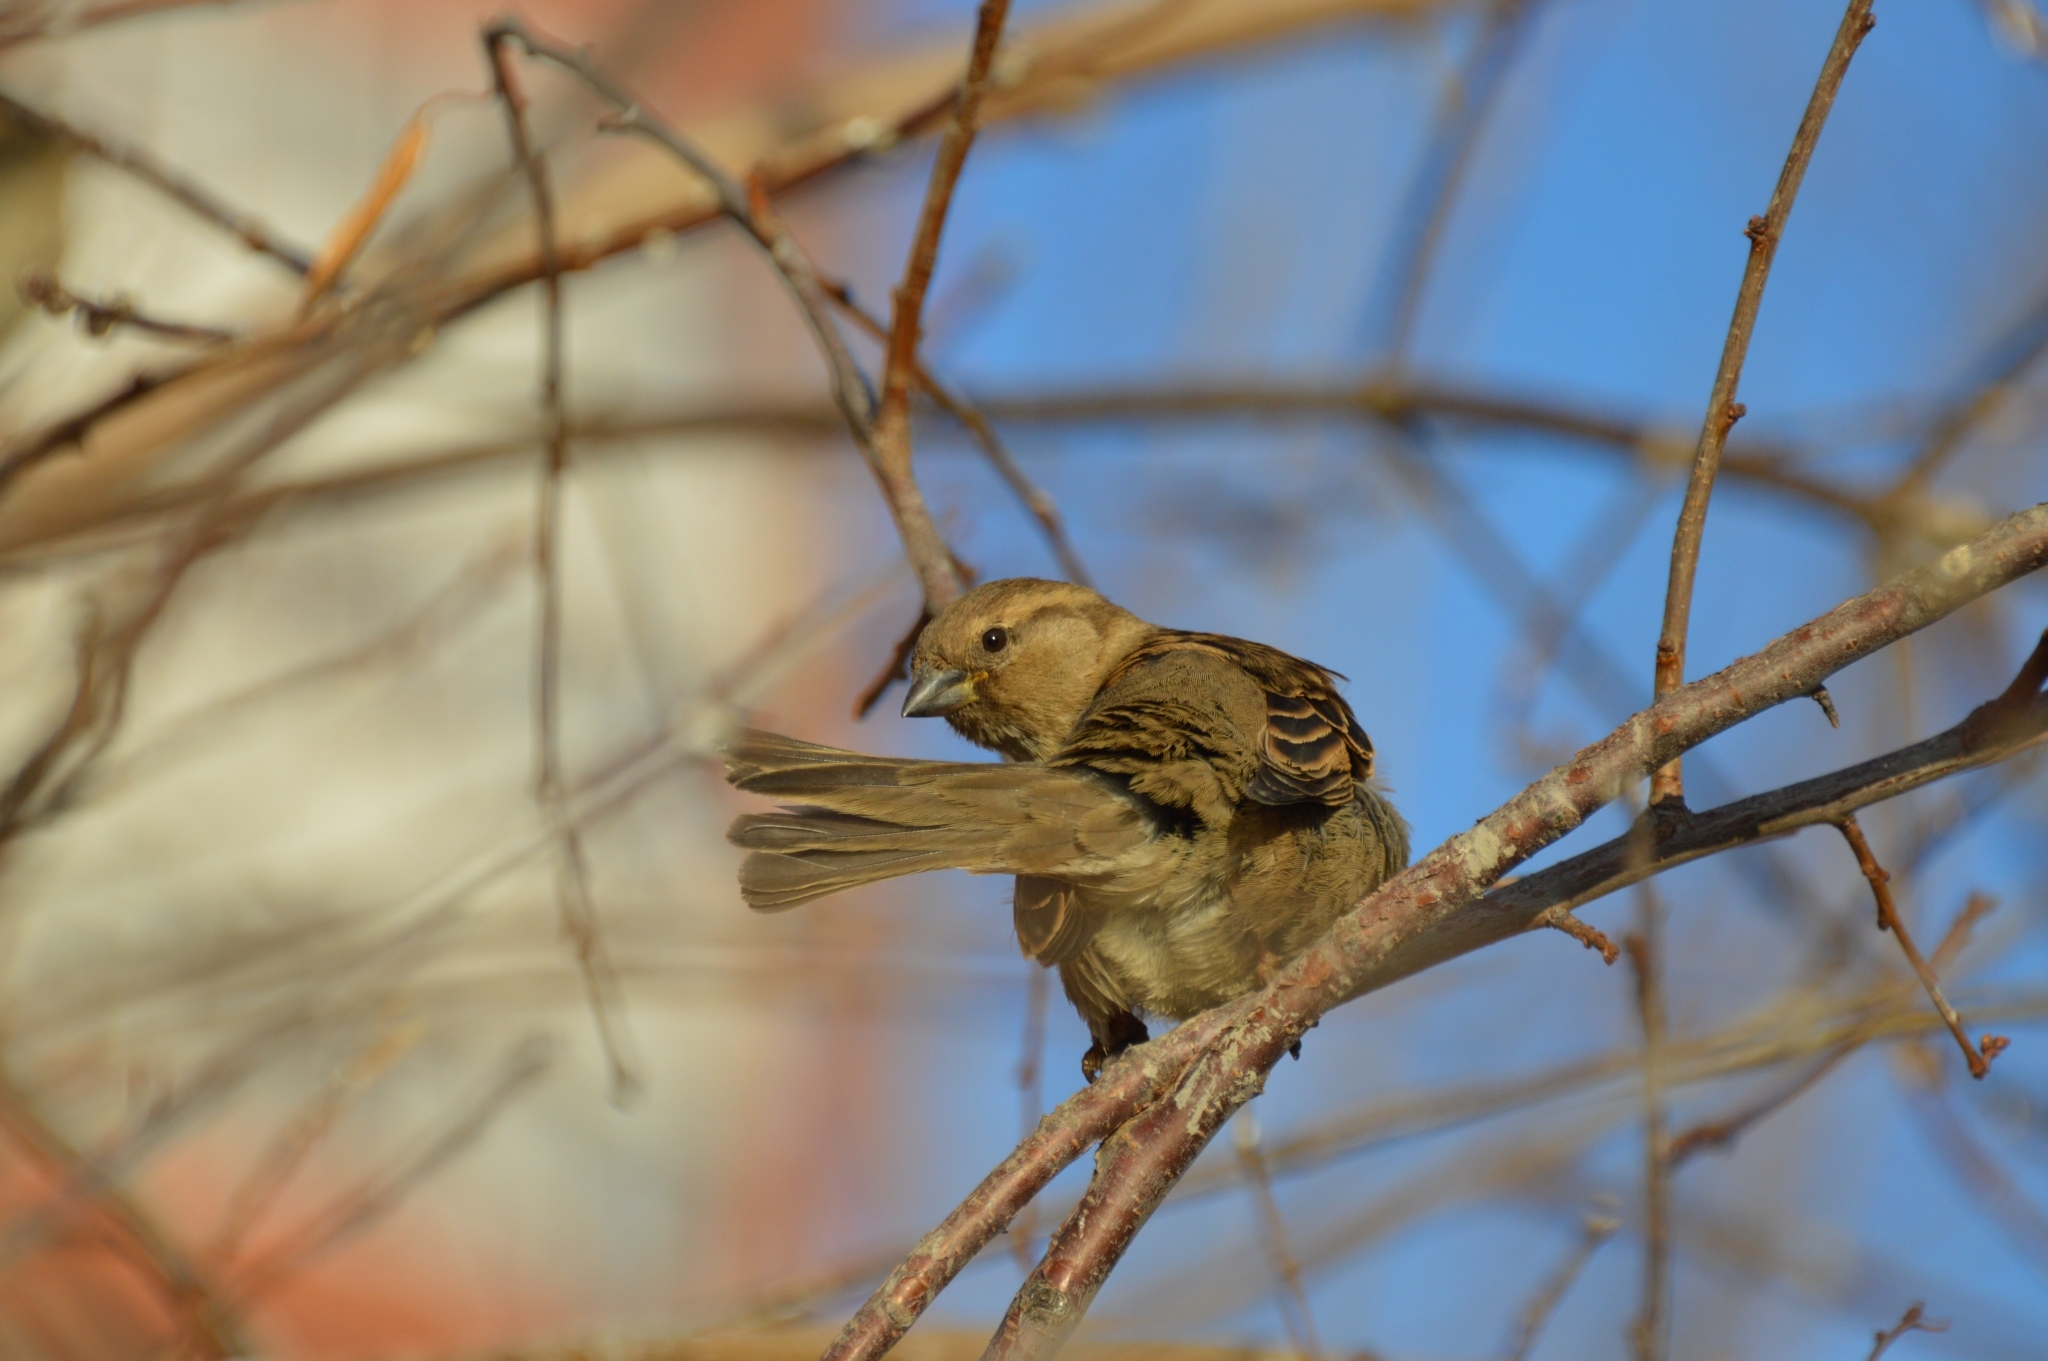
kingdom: Animalia
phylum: Chordata
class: Aves
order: Passeriformes
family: Passeridae
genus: Passer
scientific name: Passer domesticus
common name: House sparrow
